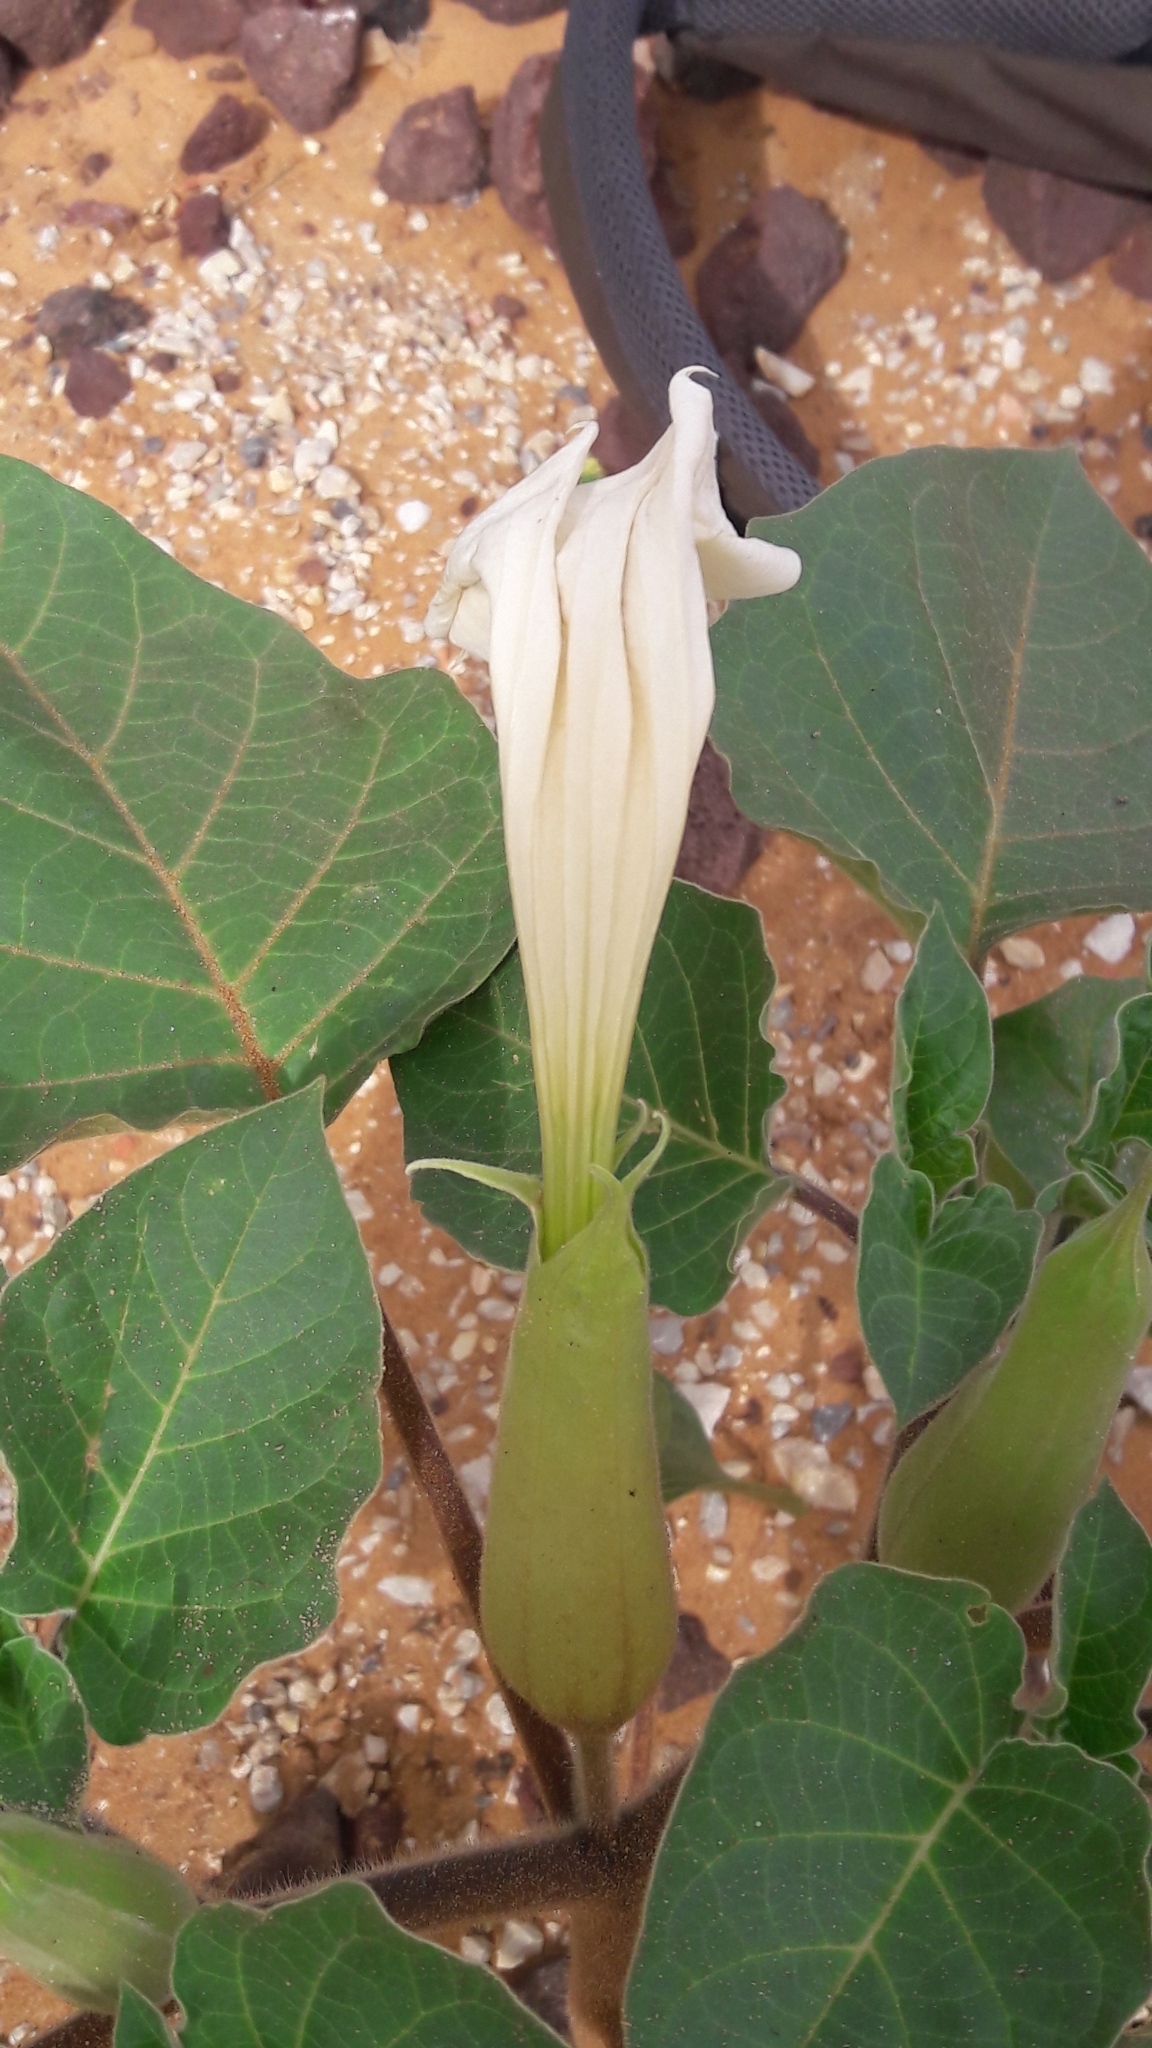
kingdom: Plantae
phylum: Tracheophyta
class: Magnoliopsida
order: Solanales
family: Solanaceae
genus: Datura
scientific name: Datura innoxia
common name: Downy thorn-apple
